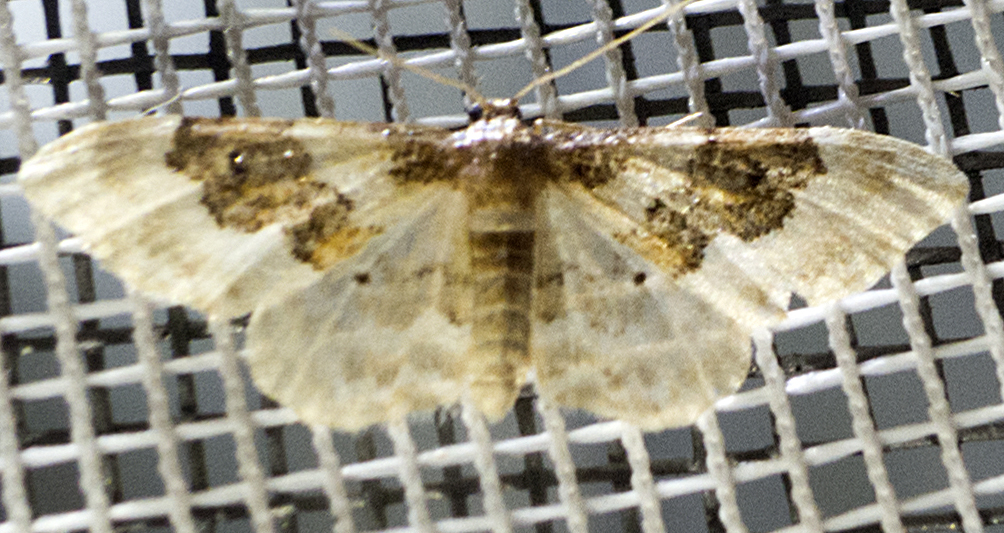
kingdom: Animalia
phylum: Arthropoda
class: Insecta
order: Lepidoptera
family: Geometridae
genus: Idaea
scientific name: Idaea rusticata
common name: Least carpet
